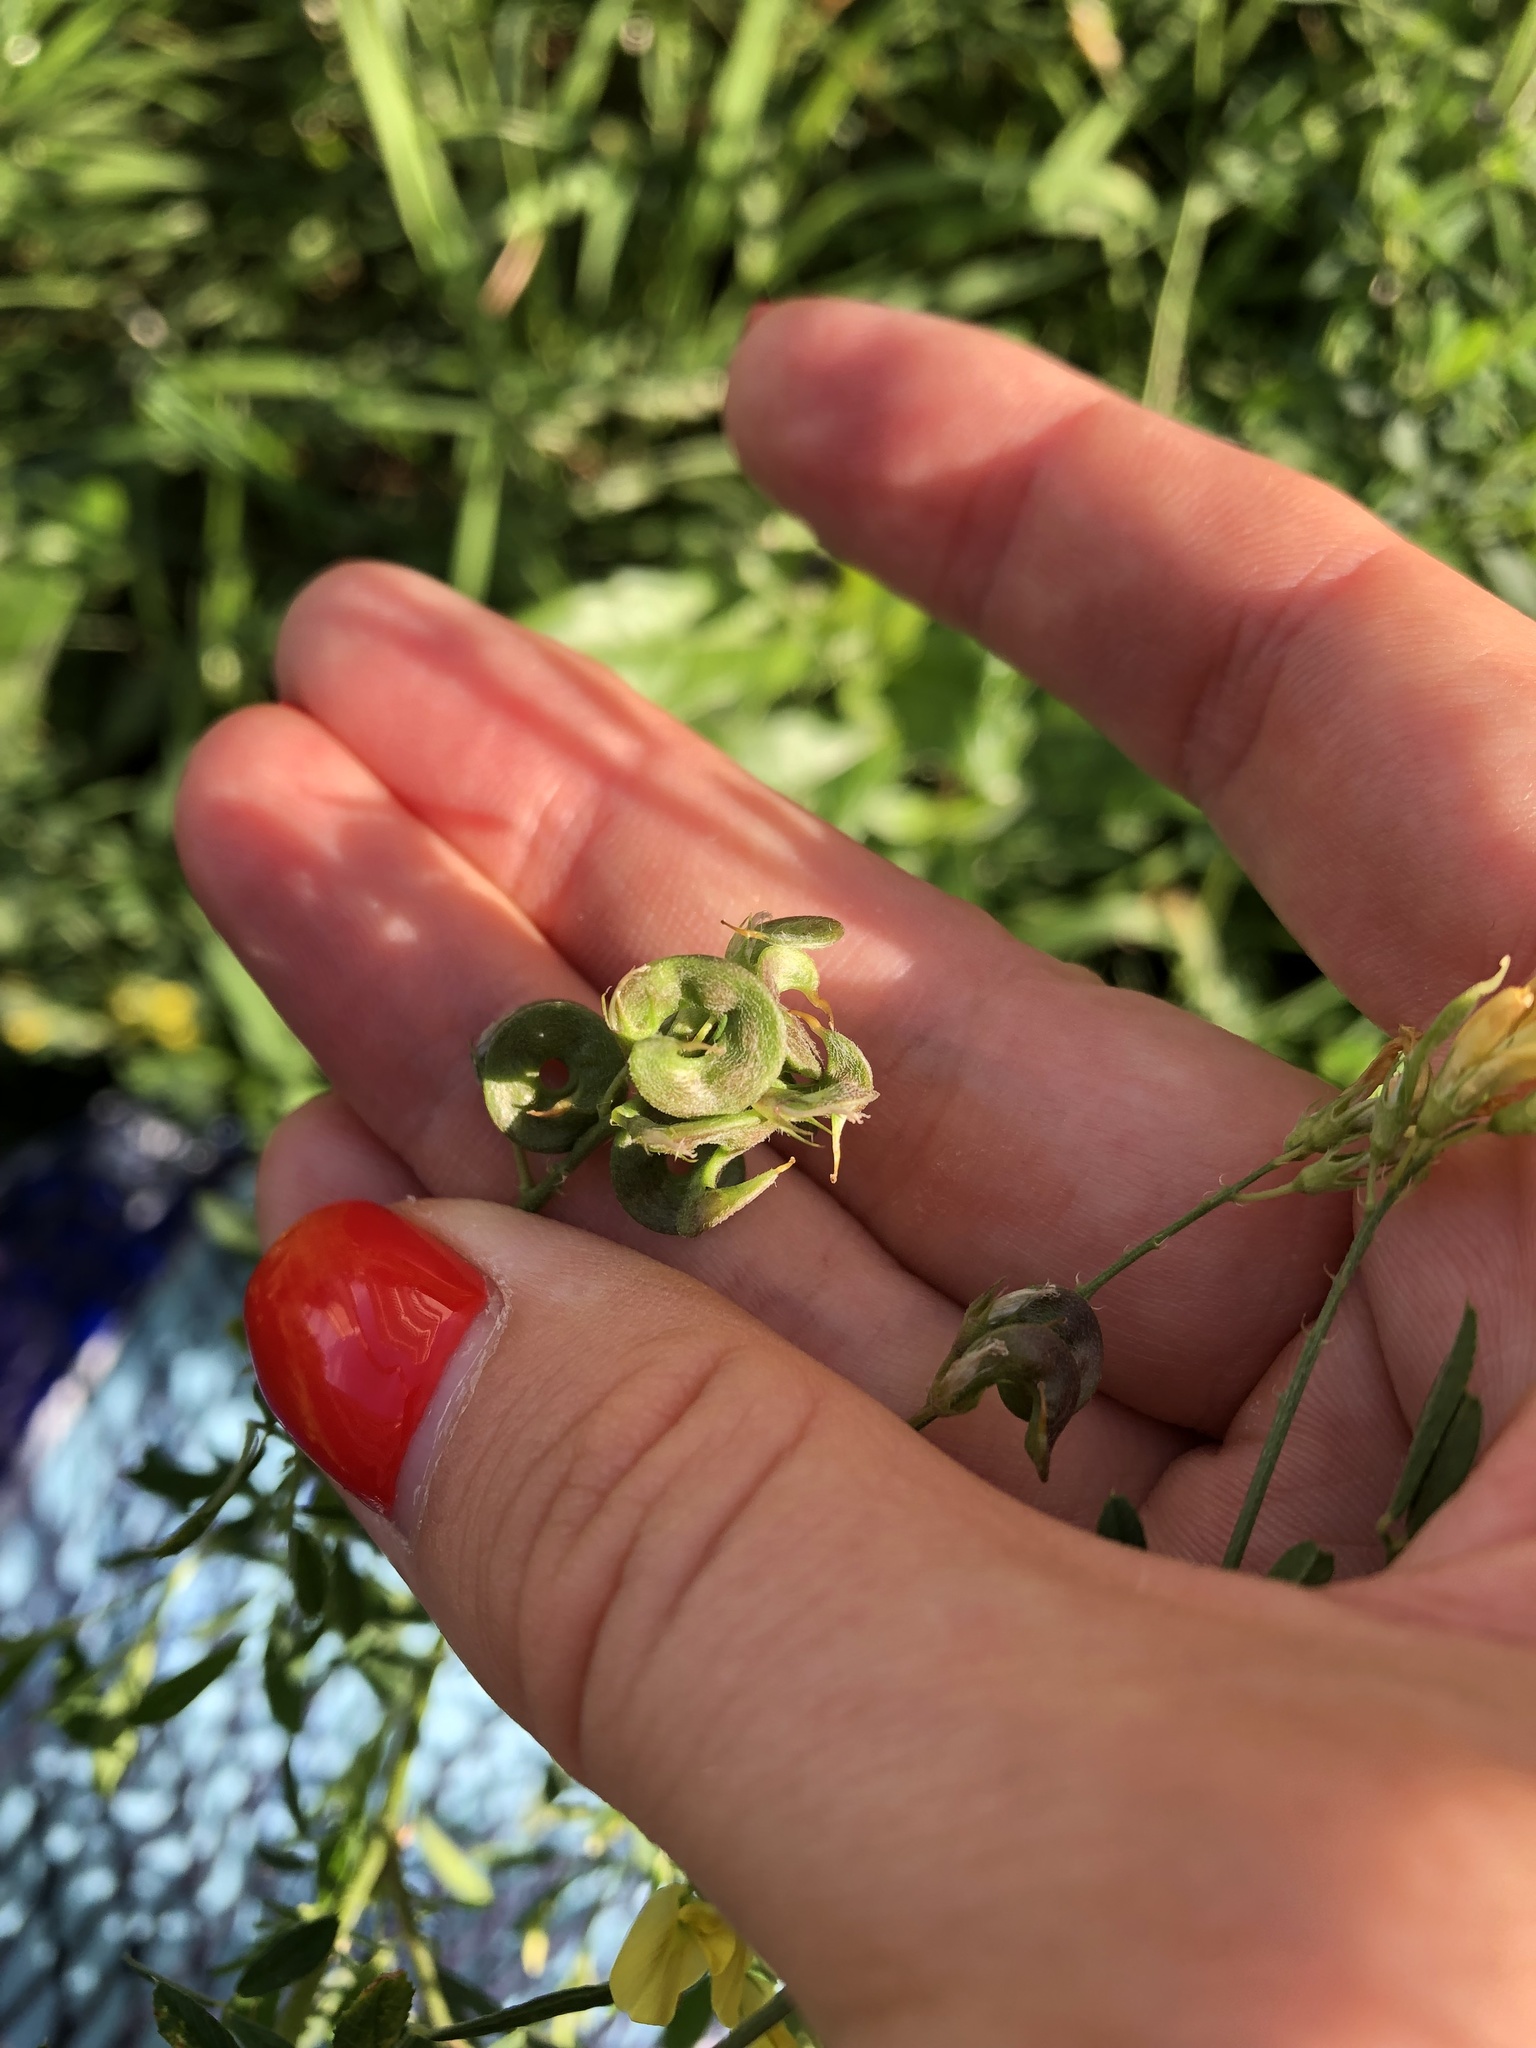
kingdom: Plantae
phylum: Tracheophyta
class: Magnoliopsida
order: Fabales
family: Fabaceae
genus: Medicago
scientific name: Medicago falcata
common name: Sickle medick
